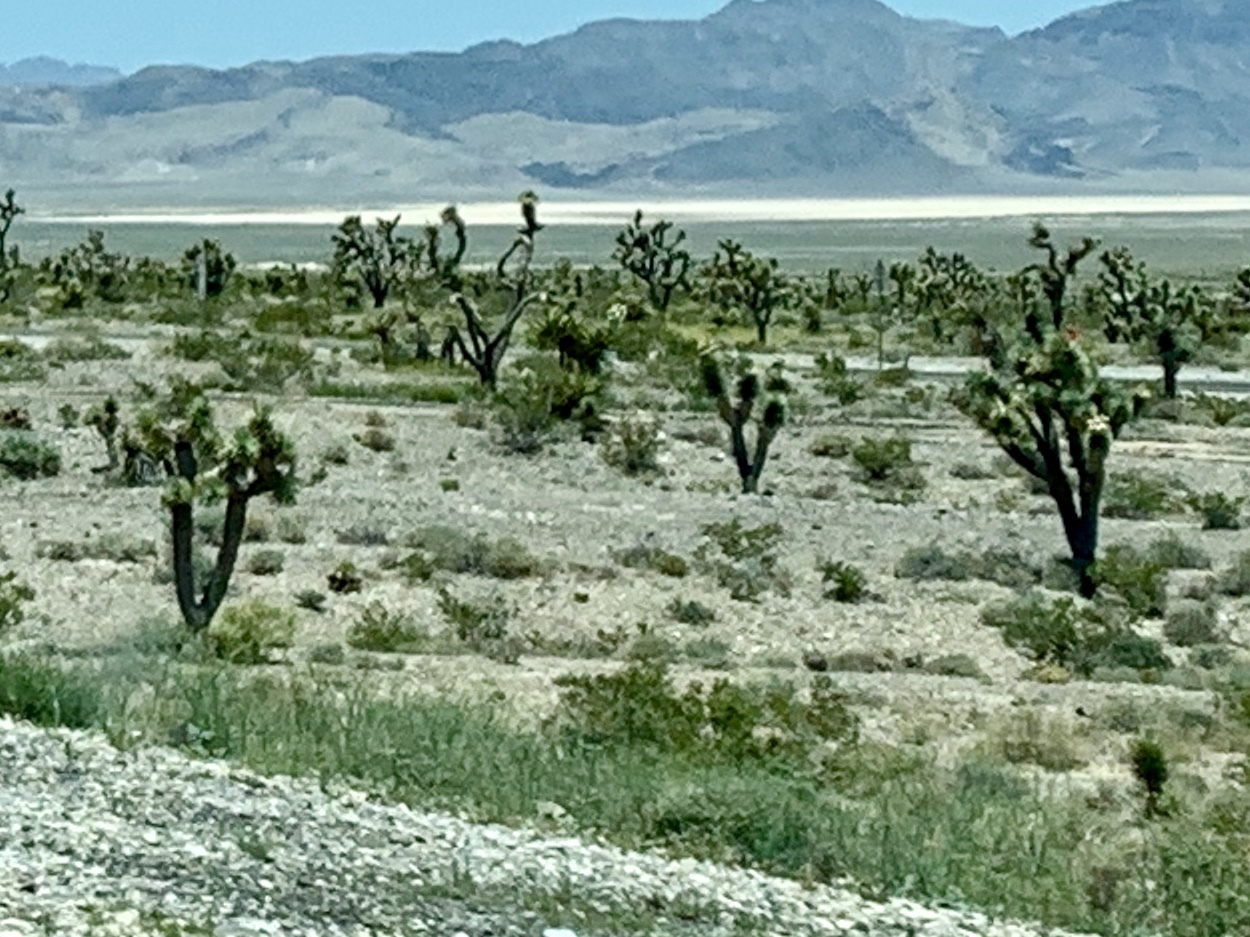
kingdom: Plantae
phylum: Tracheophyta
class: Liliopsida
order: Asparagales
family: Asparagaceae
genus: Yucca
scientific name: Yucca brevifolia
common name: Joshua tree
